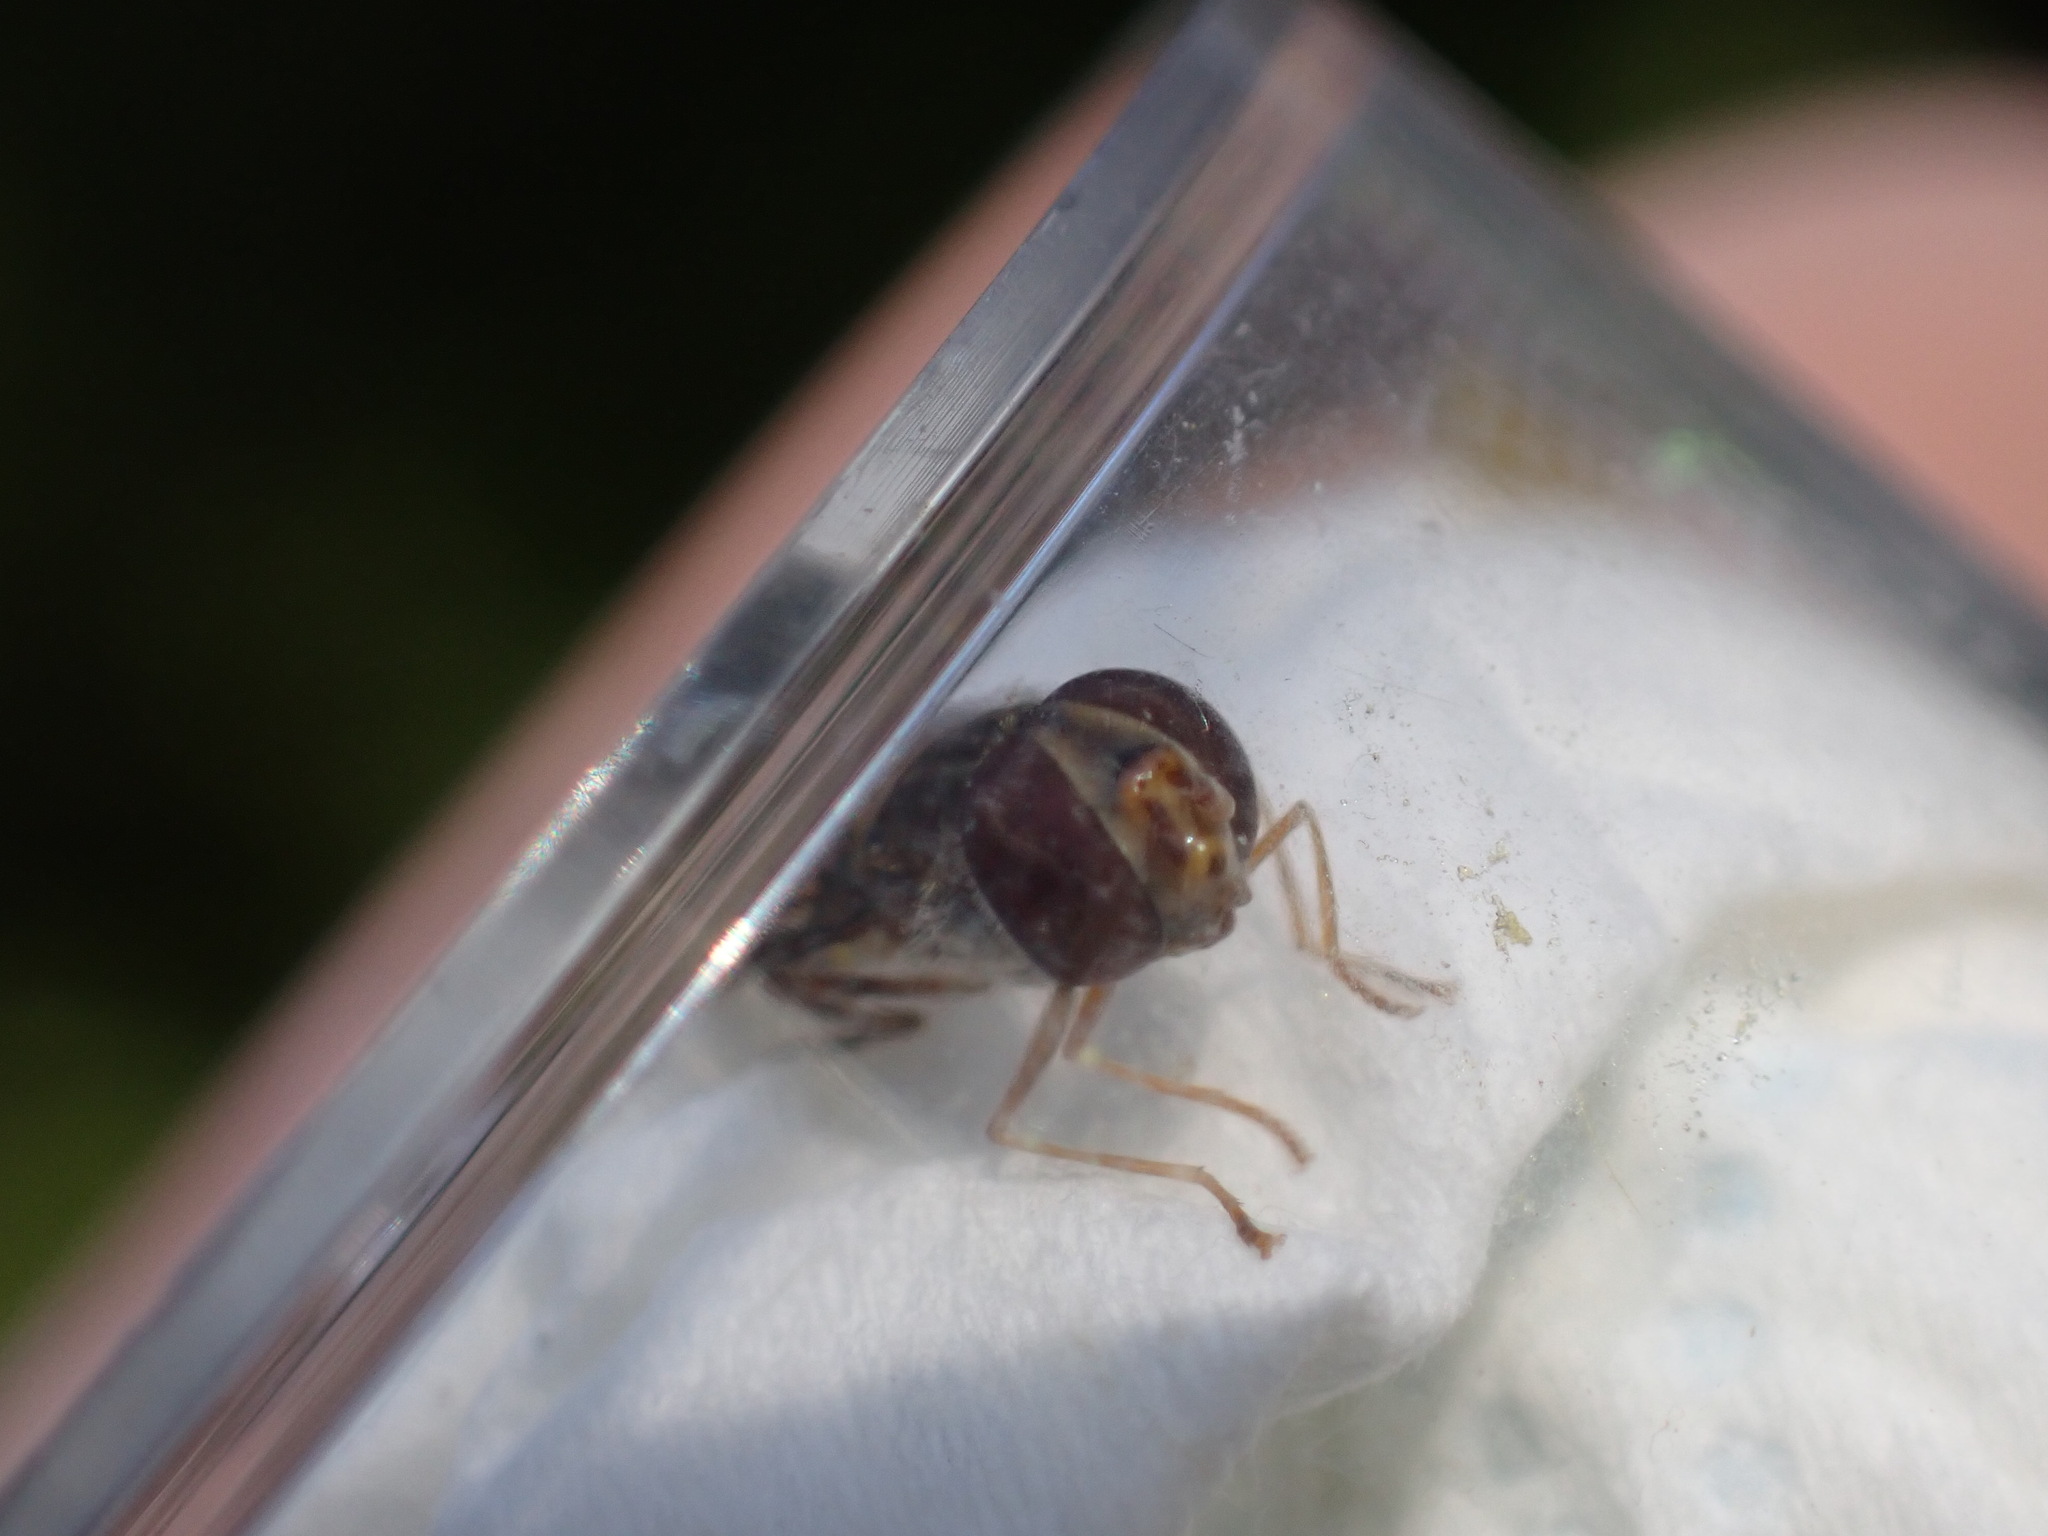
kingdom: Animalia
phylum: Arthropoda
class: Insecta
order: Diptera
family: Syrphidae
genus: Episyrphus
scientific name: Episyrphus balteatus
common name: Marmalade hoverfly
